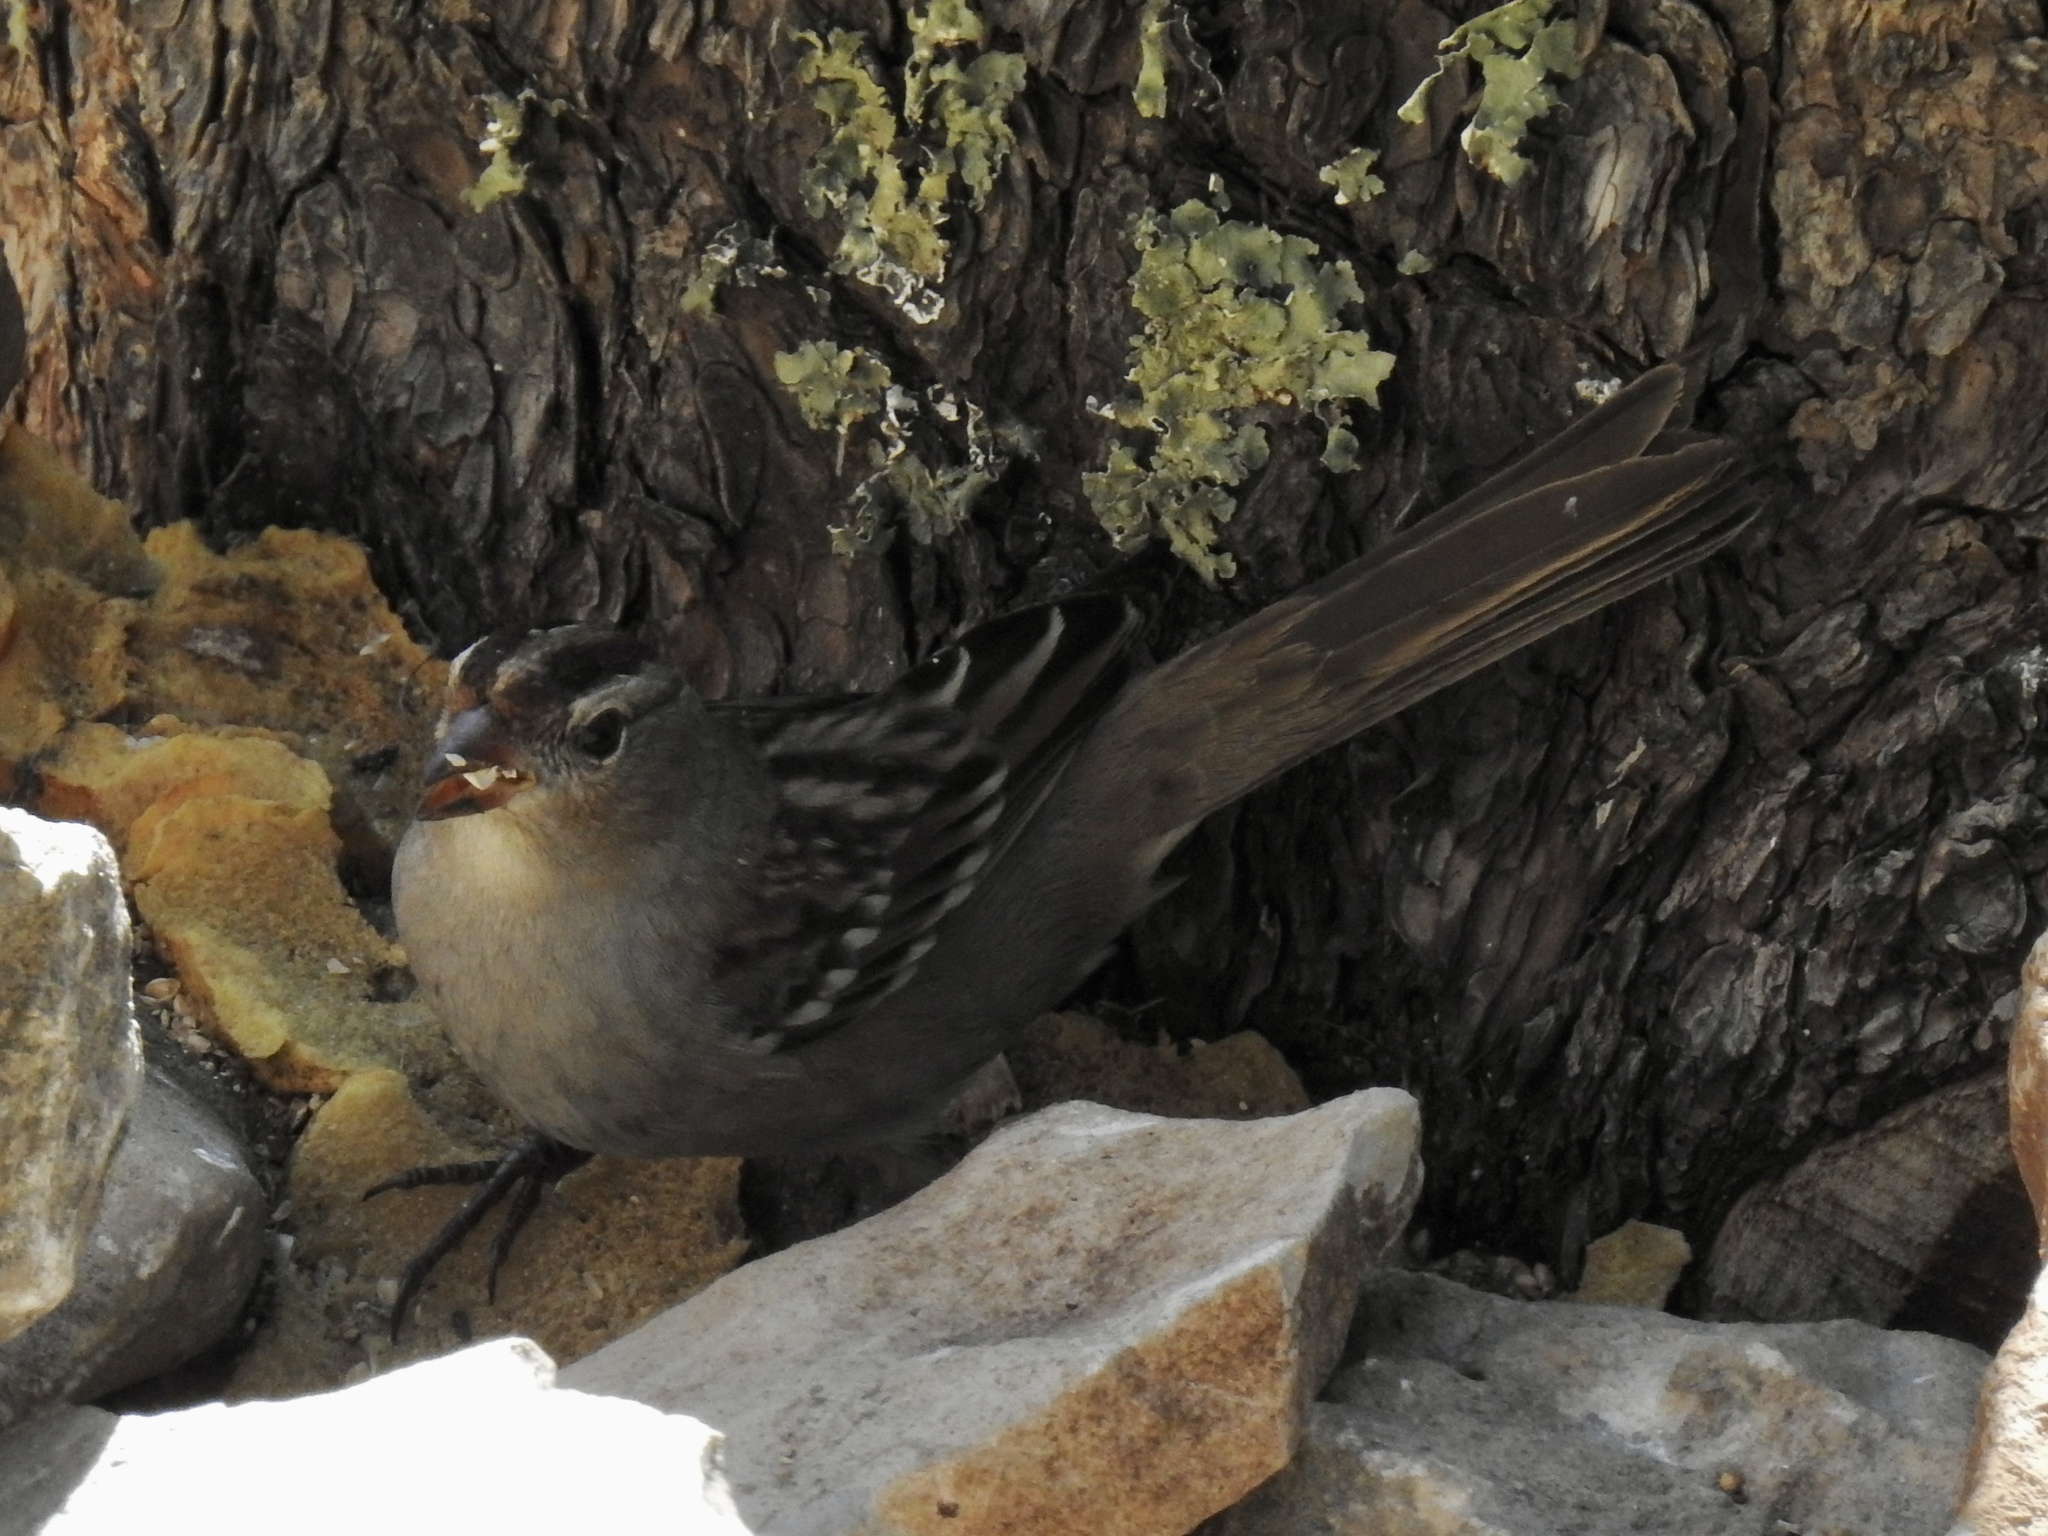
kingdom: Animalia
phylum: Chordata
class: Aves
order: Passeriformes
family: Passerellidae
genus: Zonotrichia
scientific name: Zonotrichia leucophrys
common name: White-crowned sparrow
